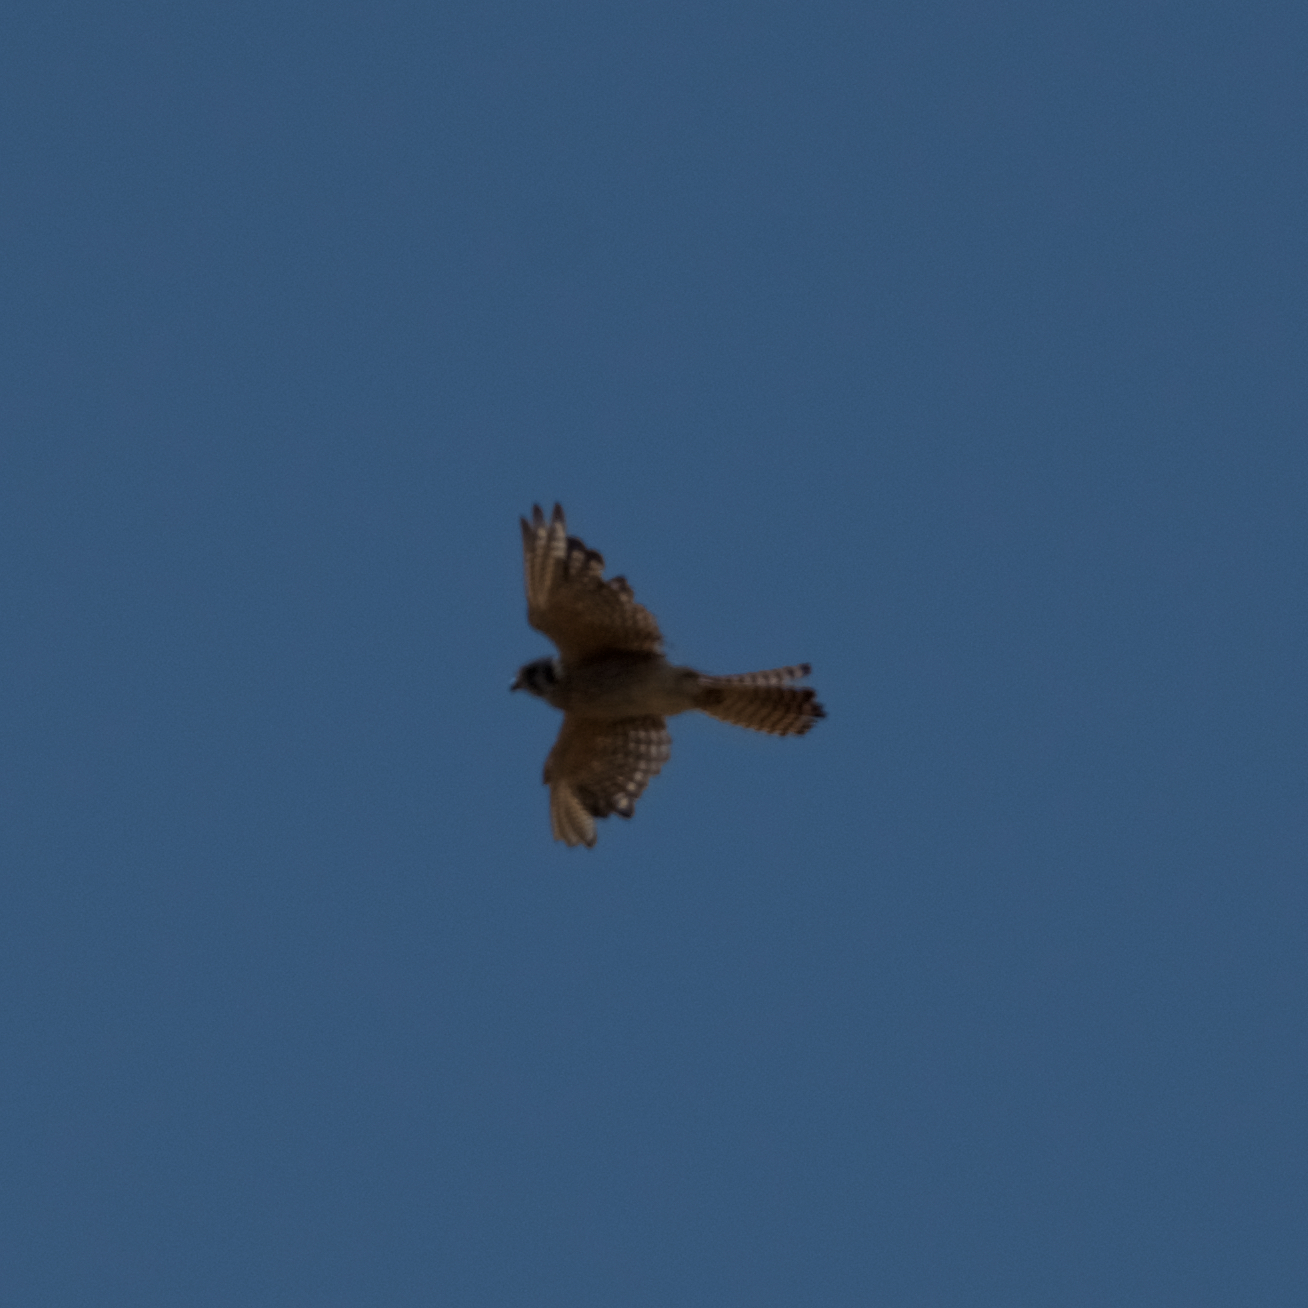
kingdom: Animalia
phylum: Chordata
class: Aves
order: Falconiformes
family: Falconidae
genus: Falco
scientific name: Falco sparverius
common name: American kestrel
